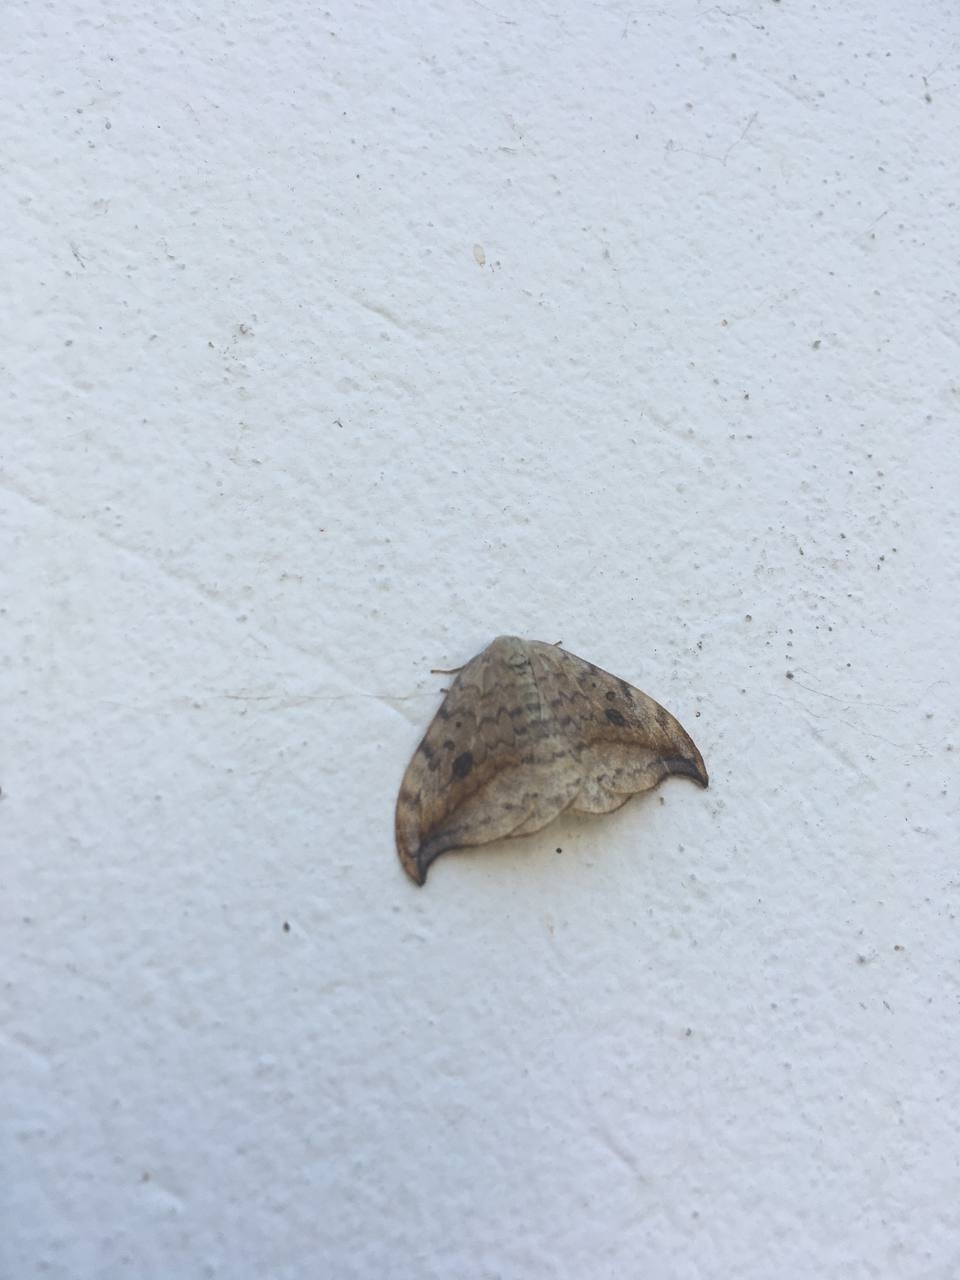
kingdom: Animalia
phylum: Arthropoda
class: Insecta
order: Lepidoptera
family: Drepanidae
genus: Drepana
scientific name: Drepana falcataria
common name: Pebble hook-tip
